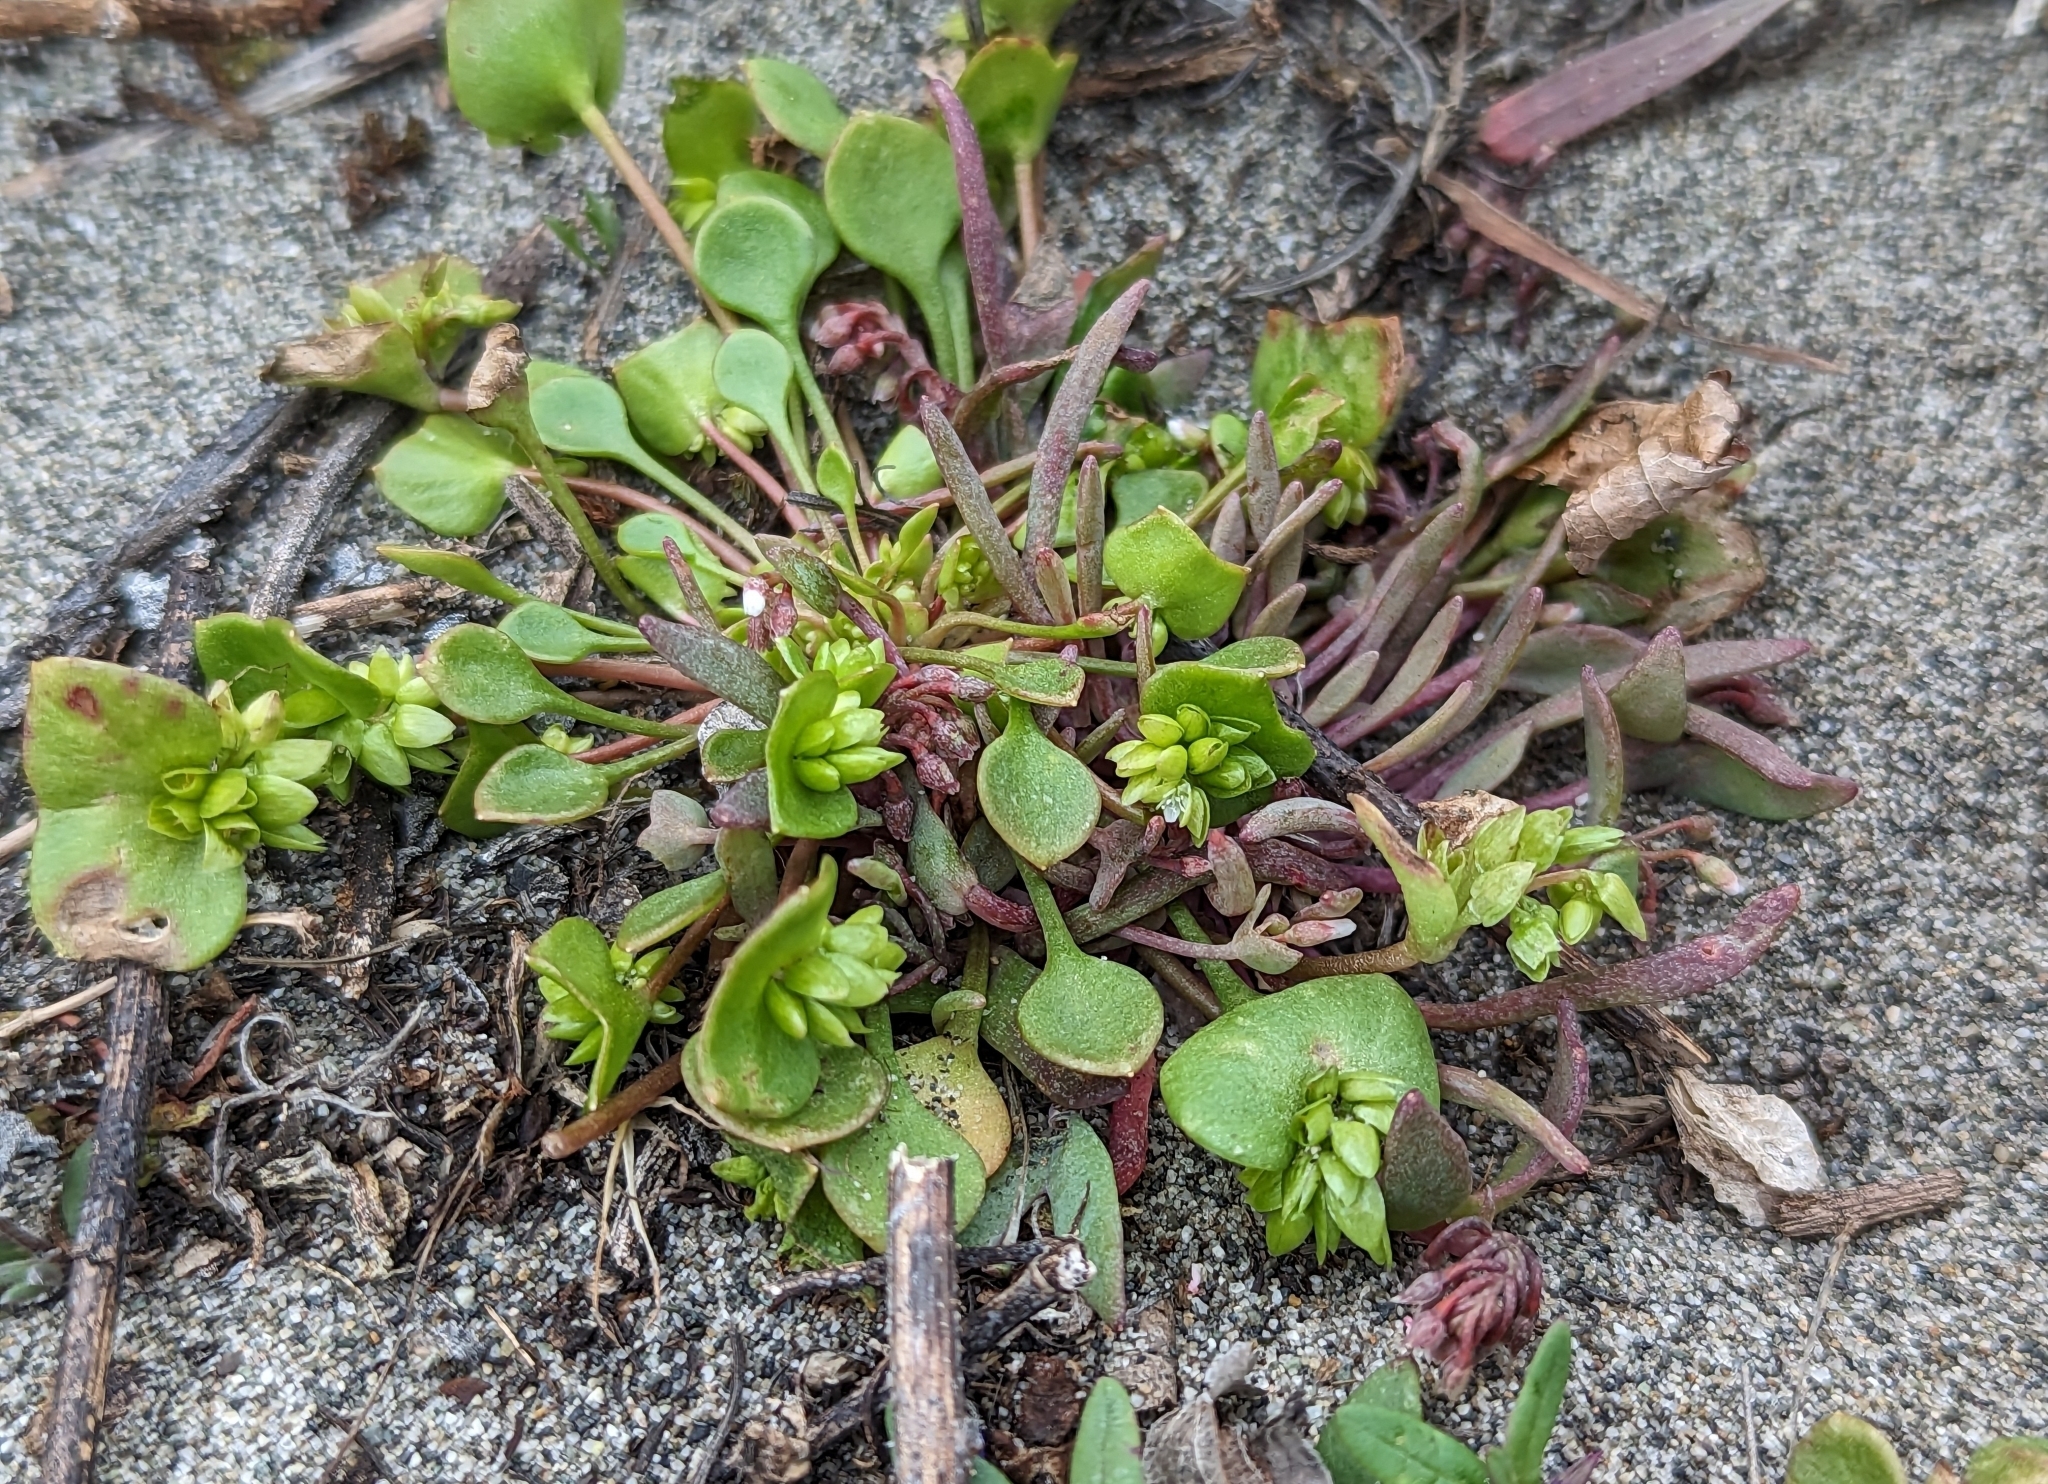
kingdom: Plantae
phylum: Tracheophyta
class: Magnoliopsida
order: Caryophyllales
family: Montiaceae
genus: Claytonia
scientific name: Claytonia rubra
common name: Erubescent miner's-lettuce
